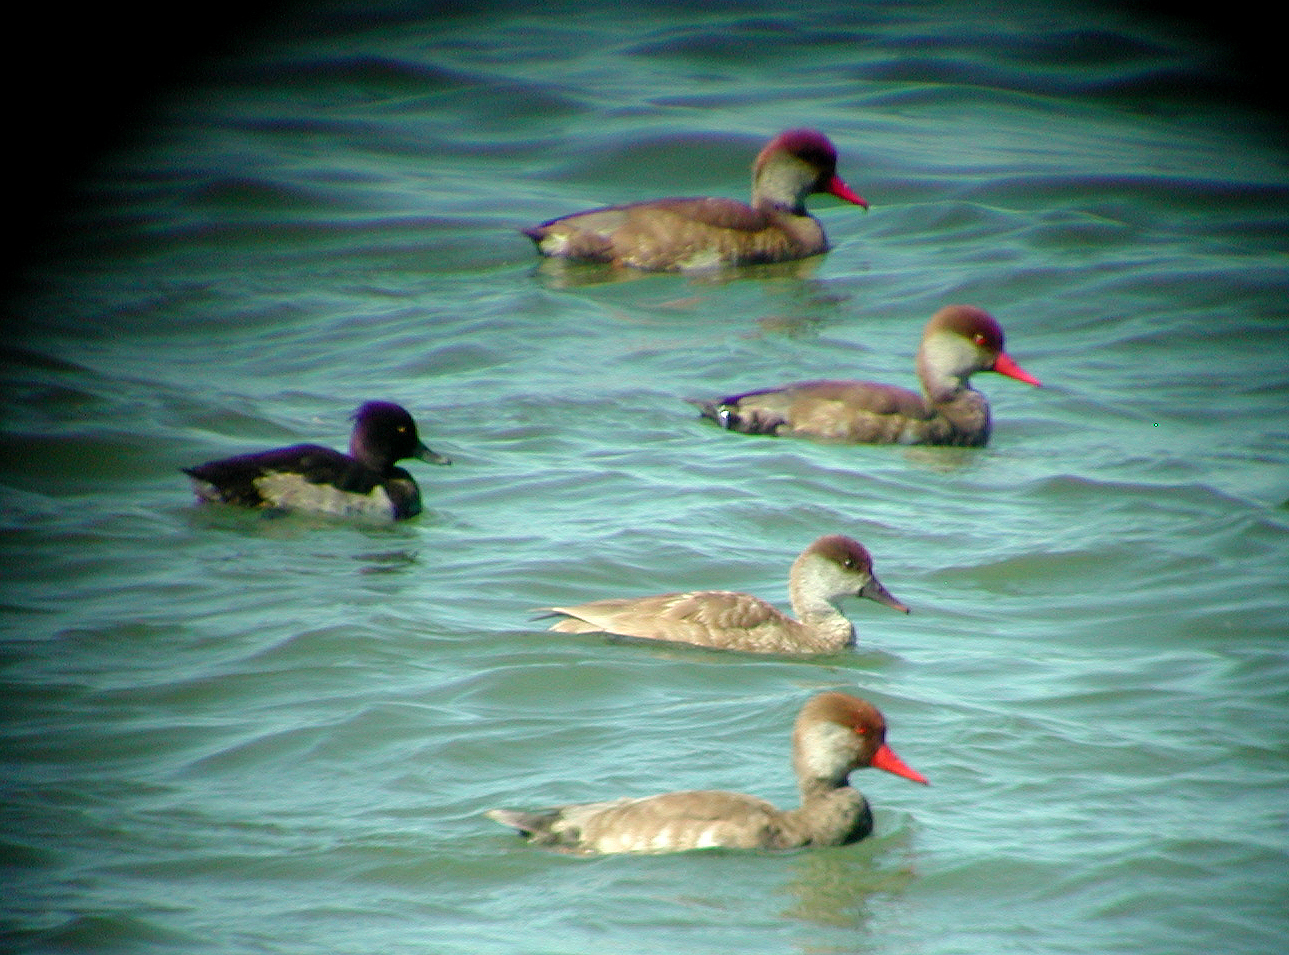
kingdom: Animalia
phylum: Chordata
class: Aves
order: Anseriformes
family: Anatidae
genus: Netta
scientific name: Netta rufina
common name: Red-crested pochard
